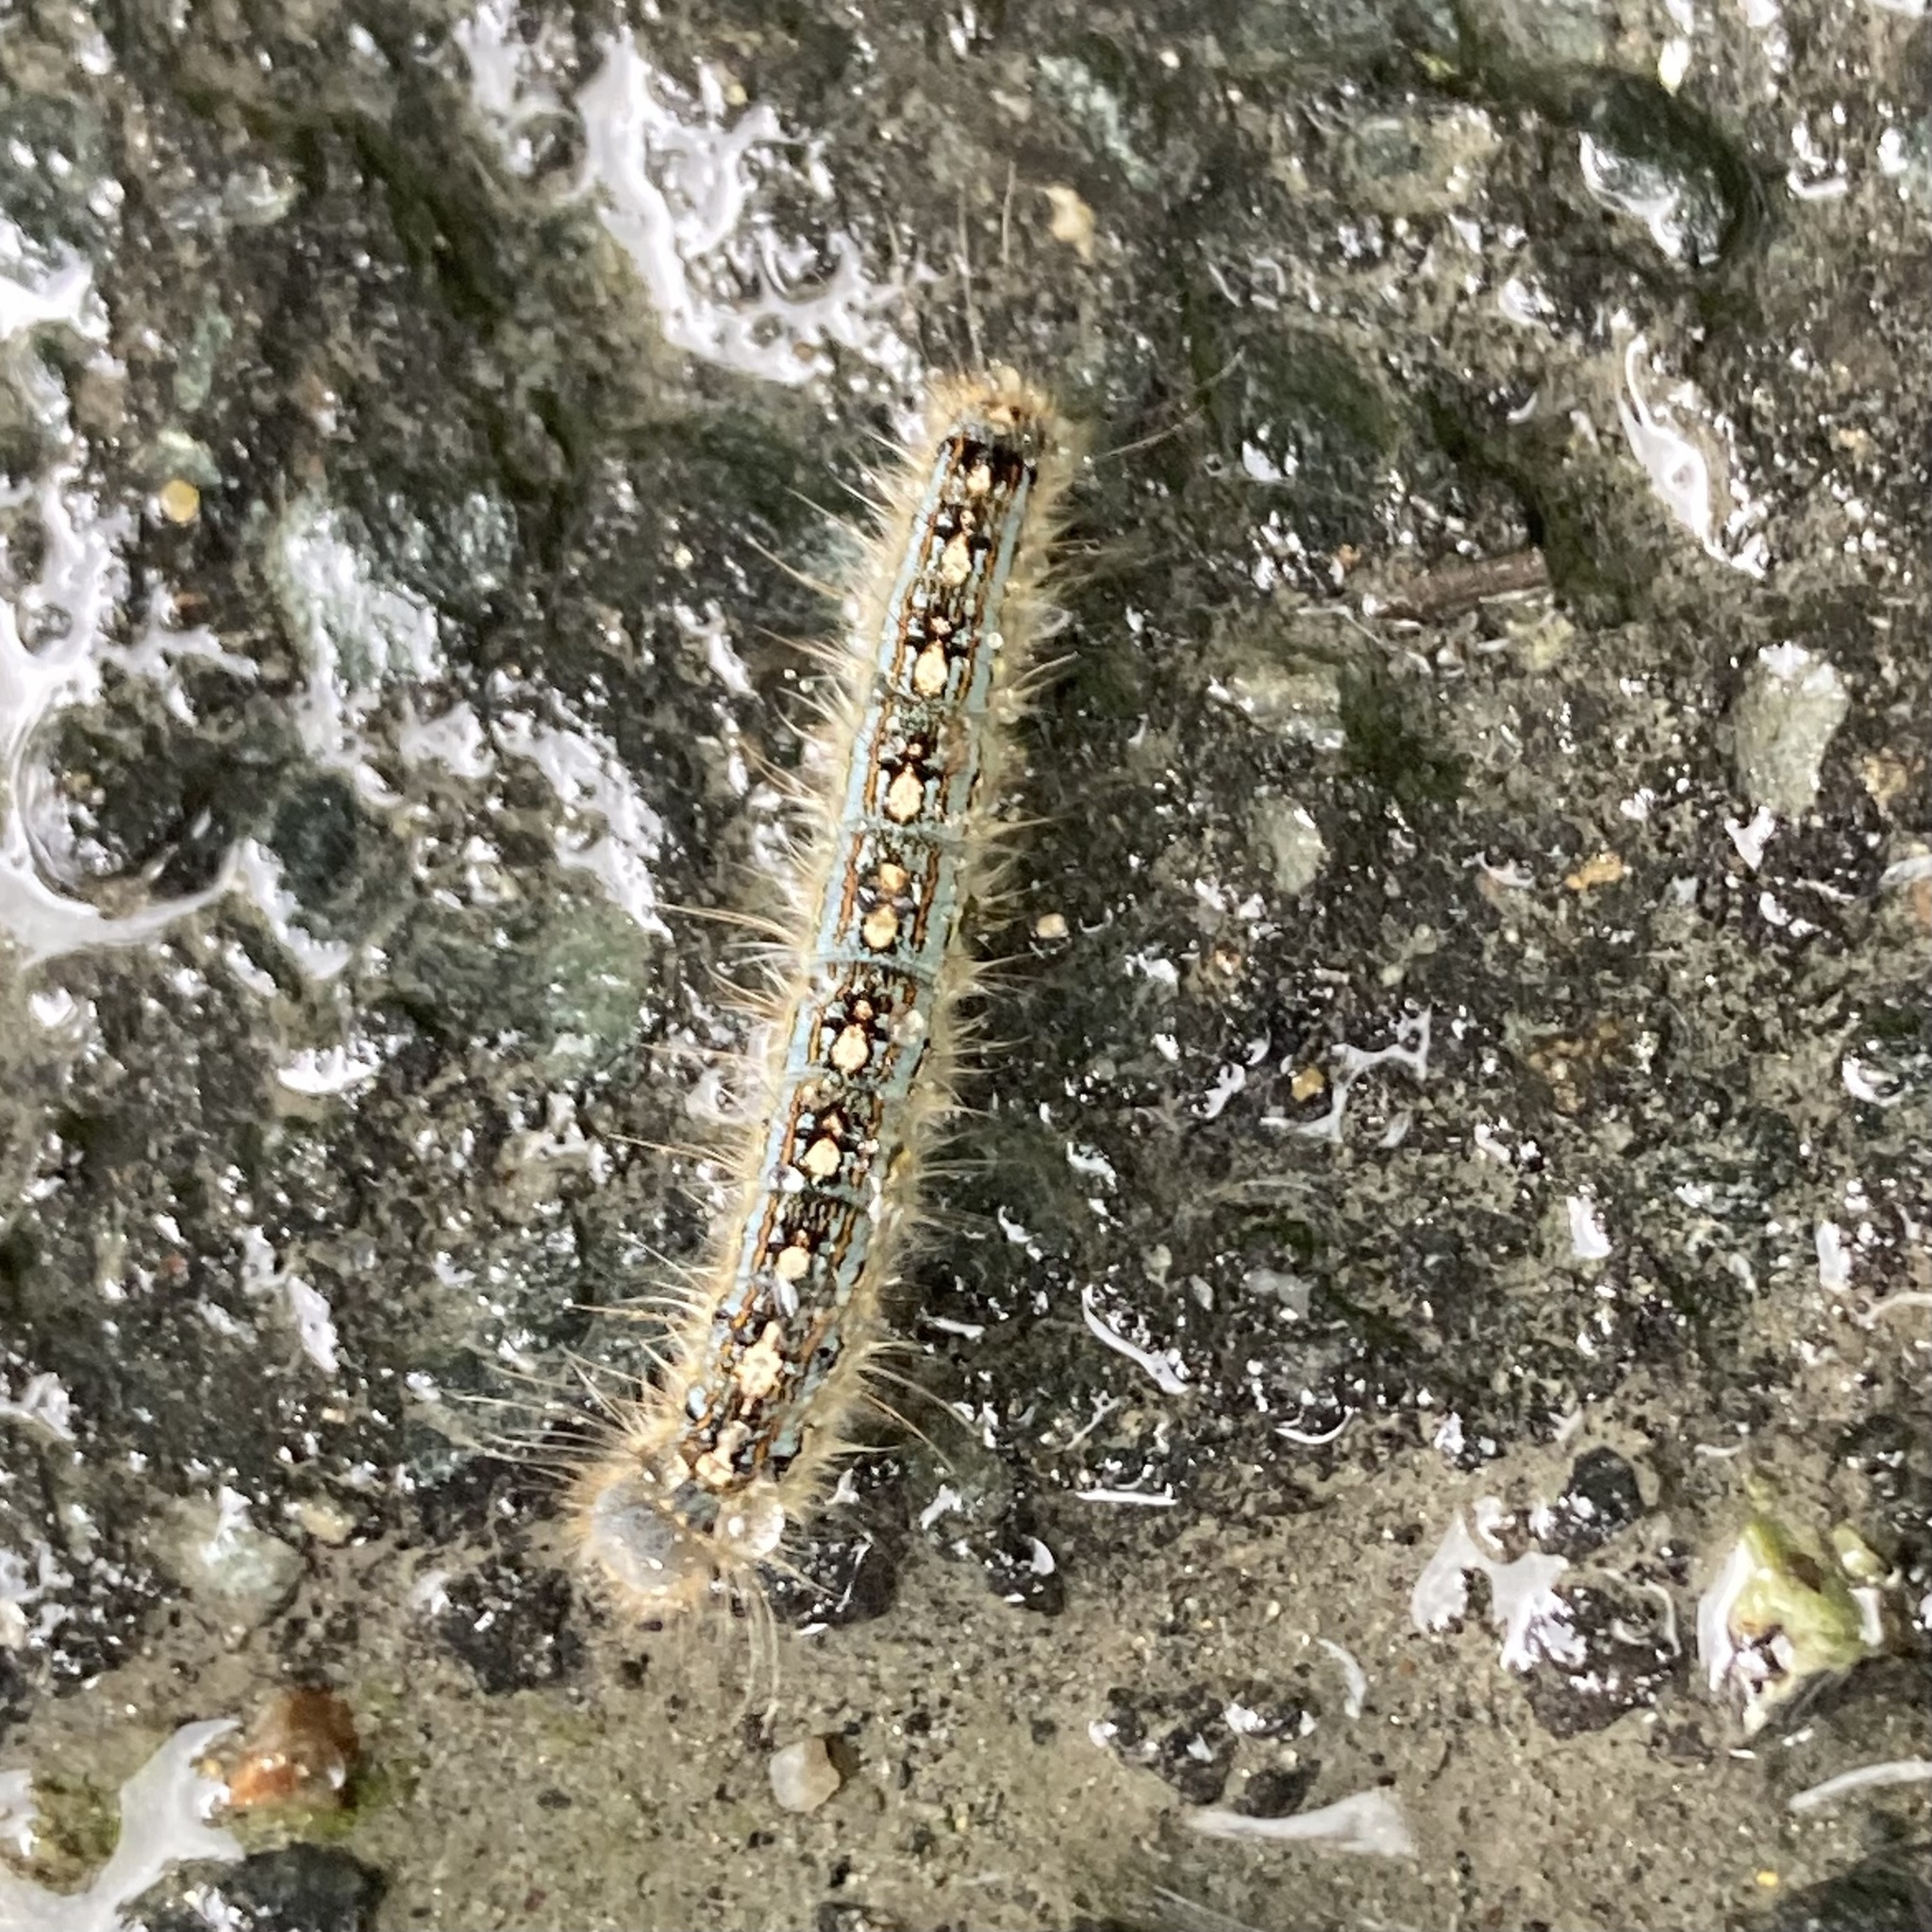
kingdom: Animalia
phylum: Arthropoda
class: Insecta
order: Lepidoptera
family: Lasiocampidae
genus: Malacosoma
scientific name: Malacosoma disstria
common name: Forest tent caterpillar
